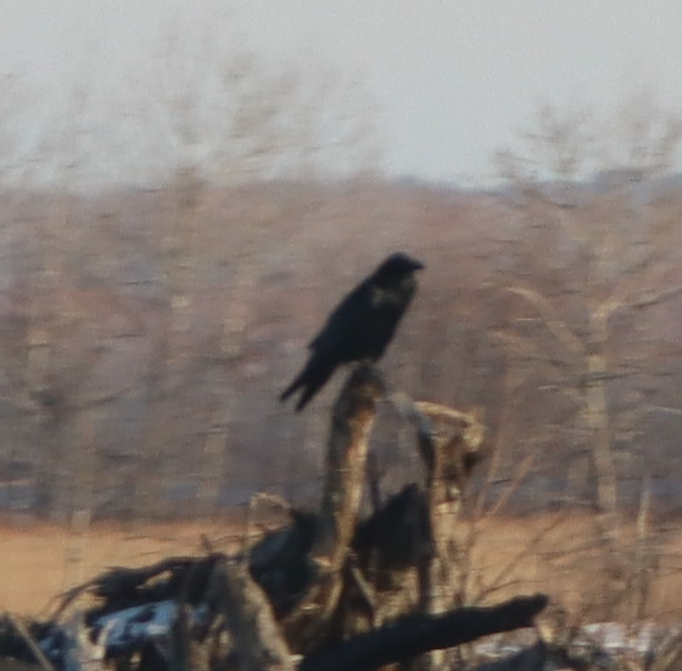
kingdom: Animalia
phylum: Chordata
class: Aves
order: Passeriformes
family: Corvidae
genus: Corvus
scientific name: Corvus corax
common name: Common raven
